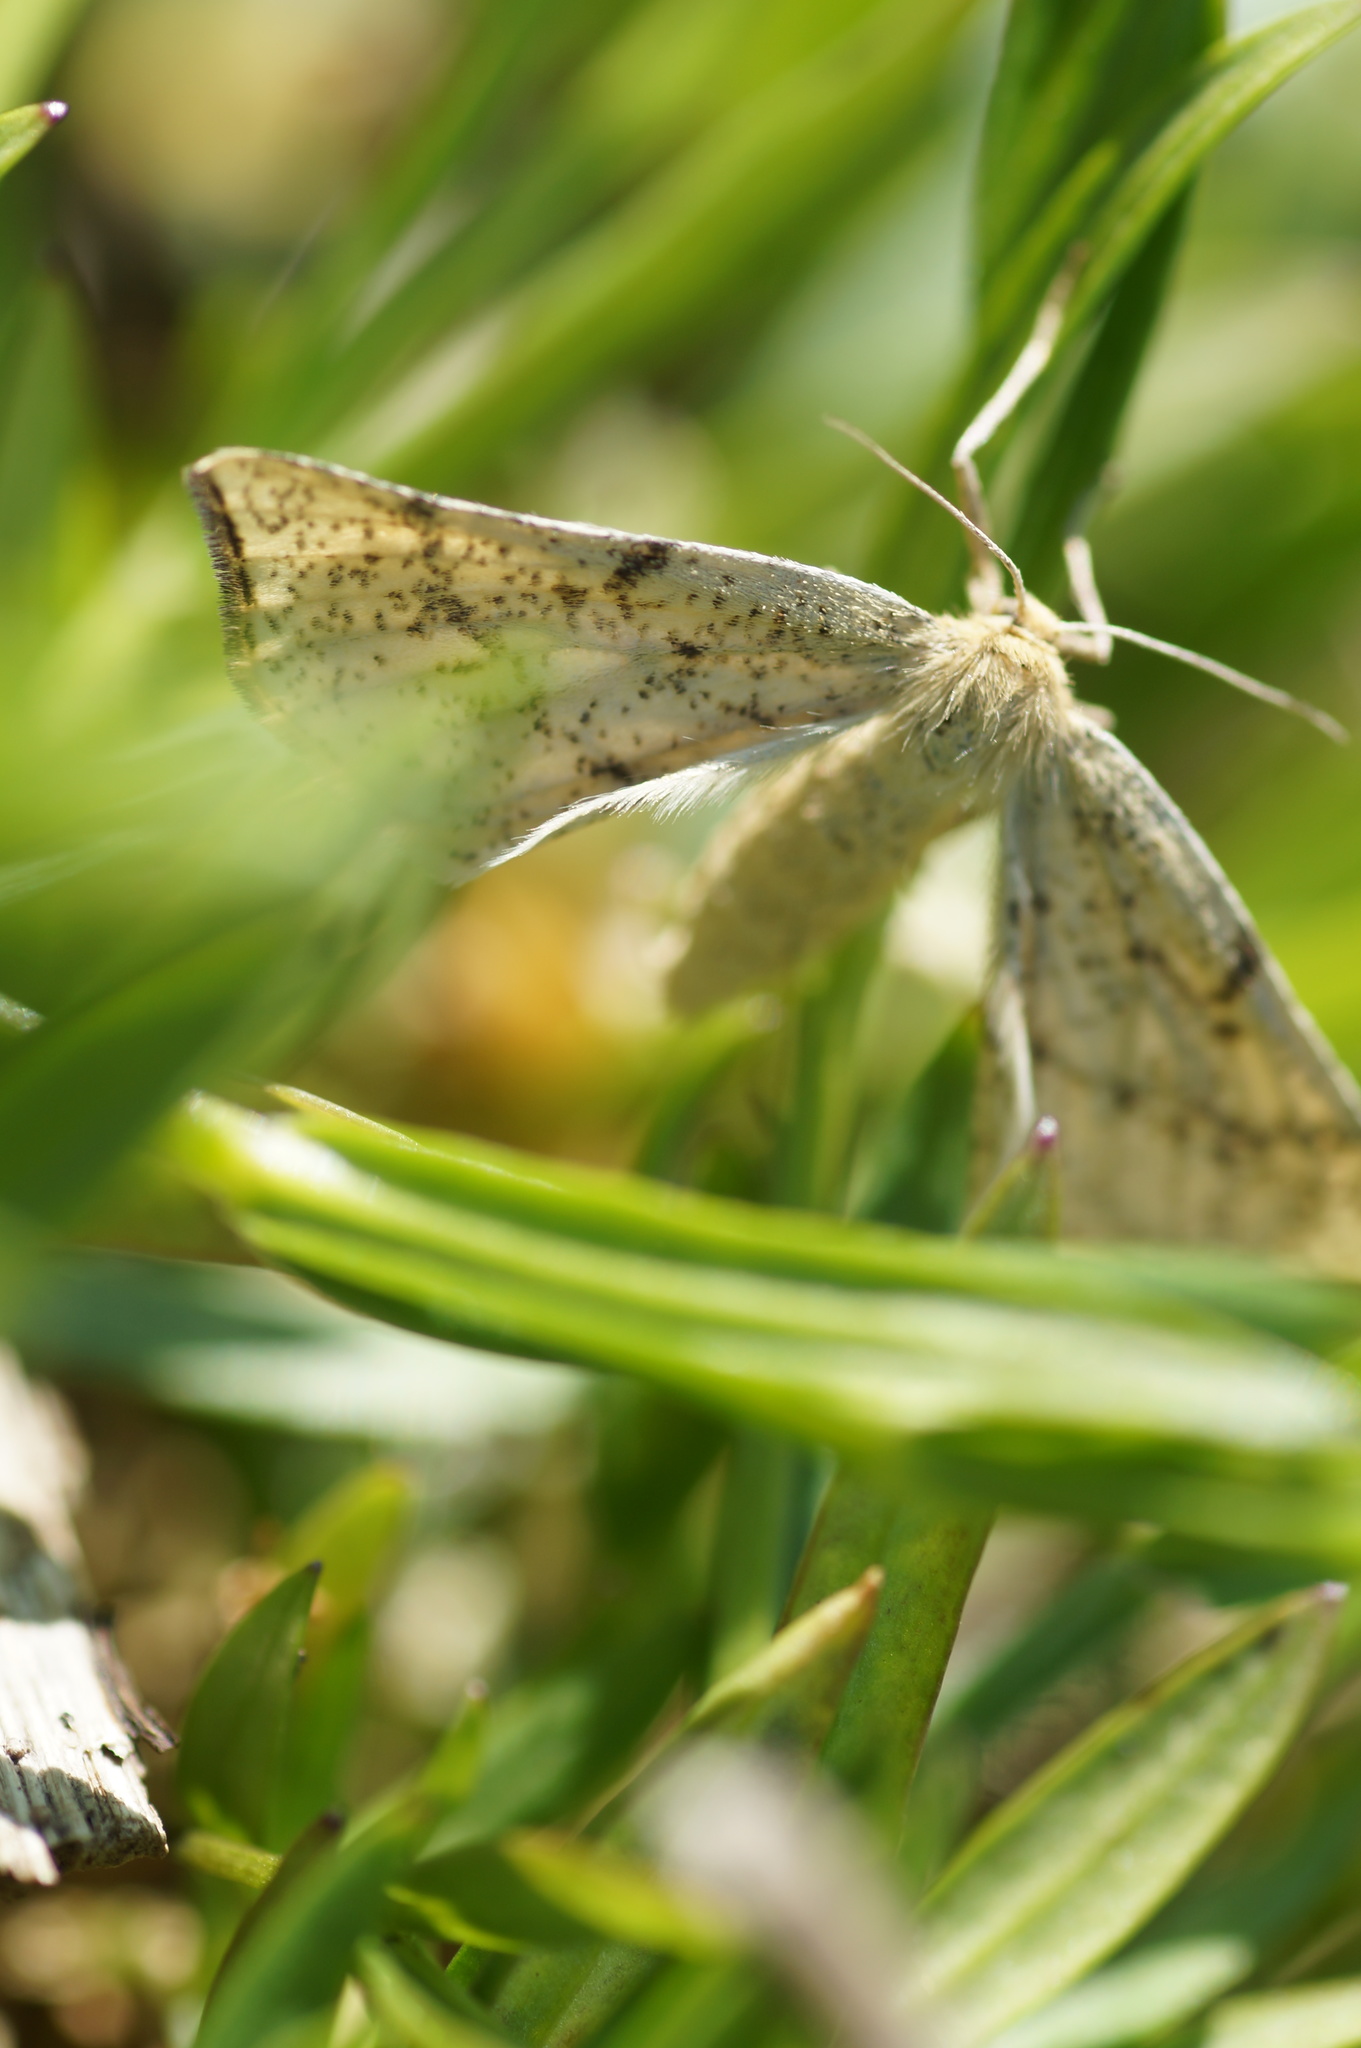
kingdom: Animalia
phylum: Arthropoda
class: Insecta
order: Lepidoptera
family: Geometridae
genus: Hypoxystis
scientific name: Hypoxystis pluviaria
